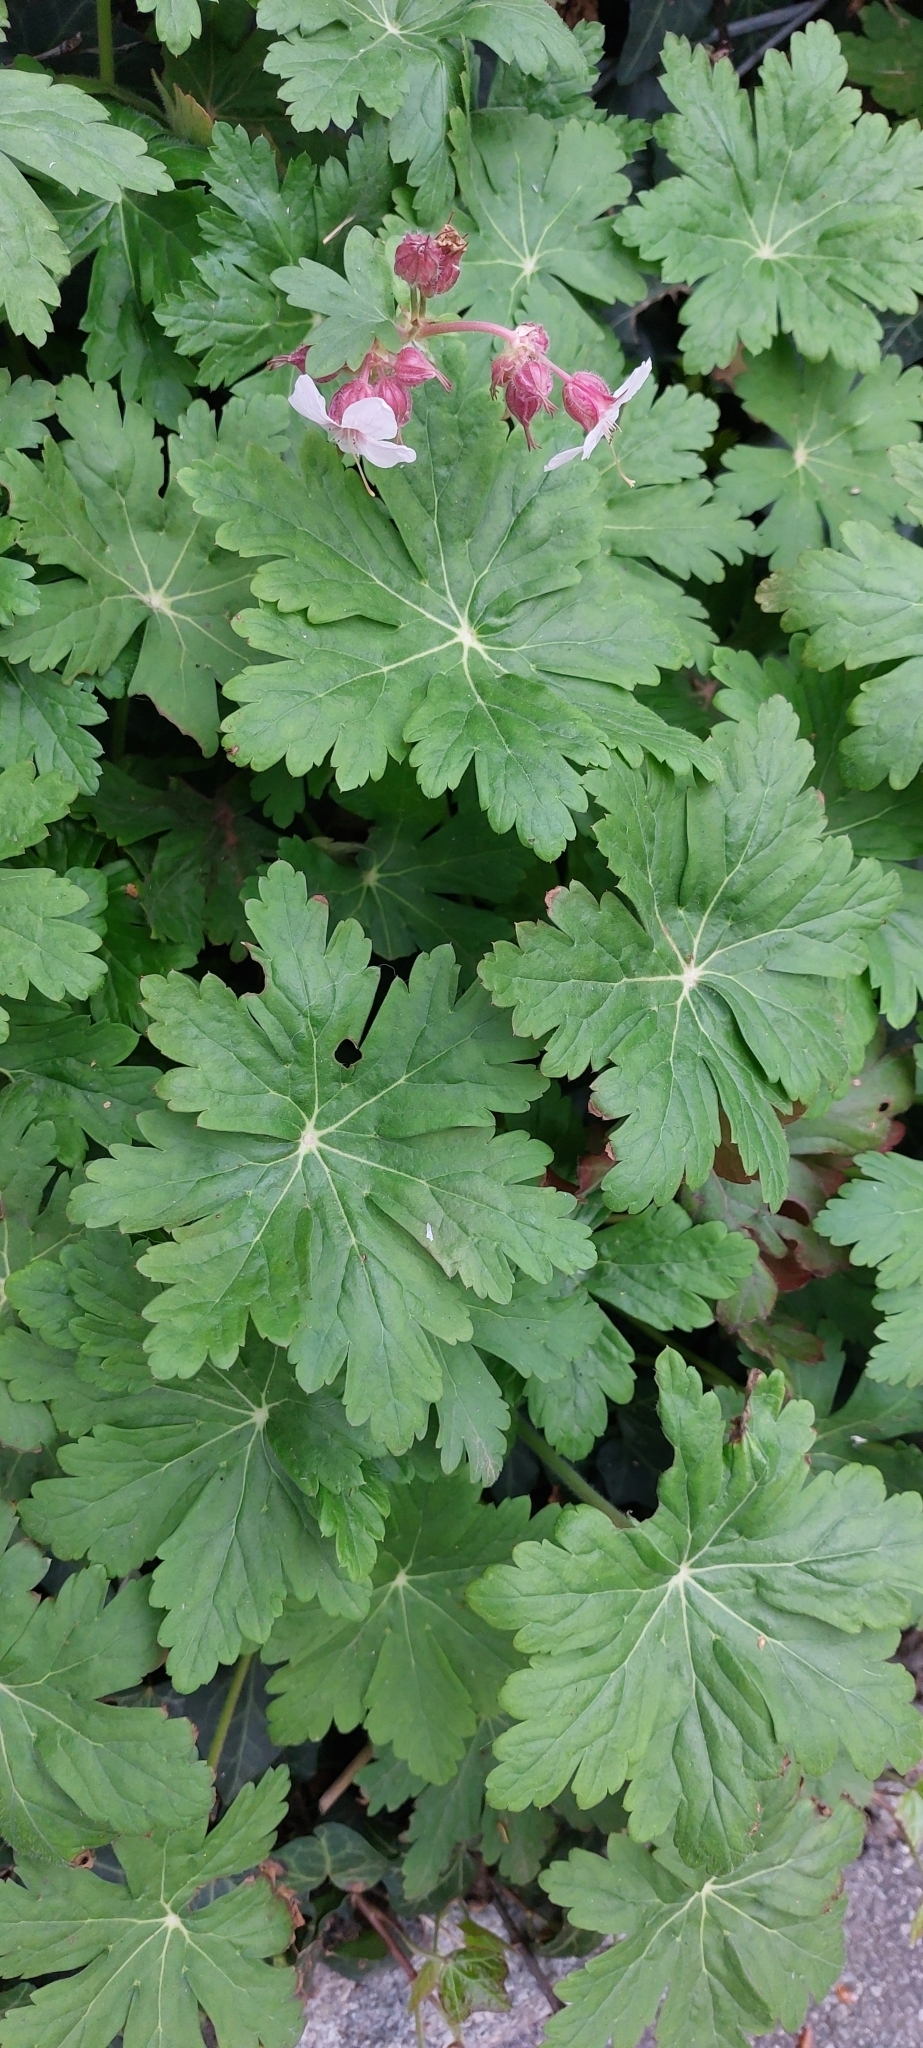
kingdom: Plantae
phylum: Tracheophyta
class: Magnoliopsida
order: Geraniales
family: Geraniaceae
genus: Geranium
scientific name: Geranium macrorrhizum
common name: Rock crane's-bill
